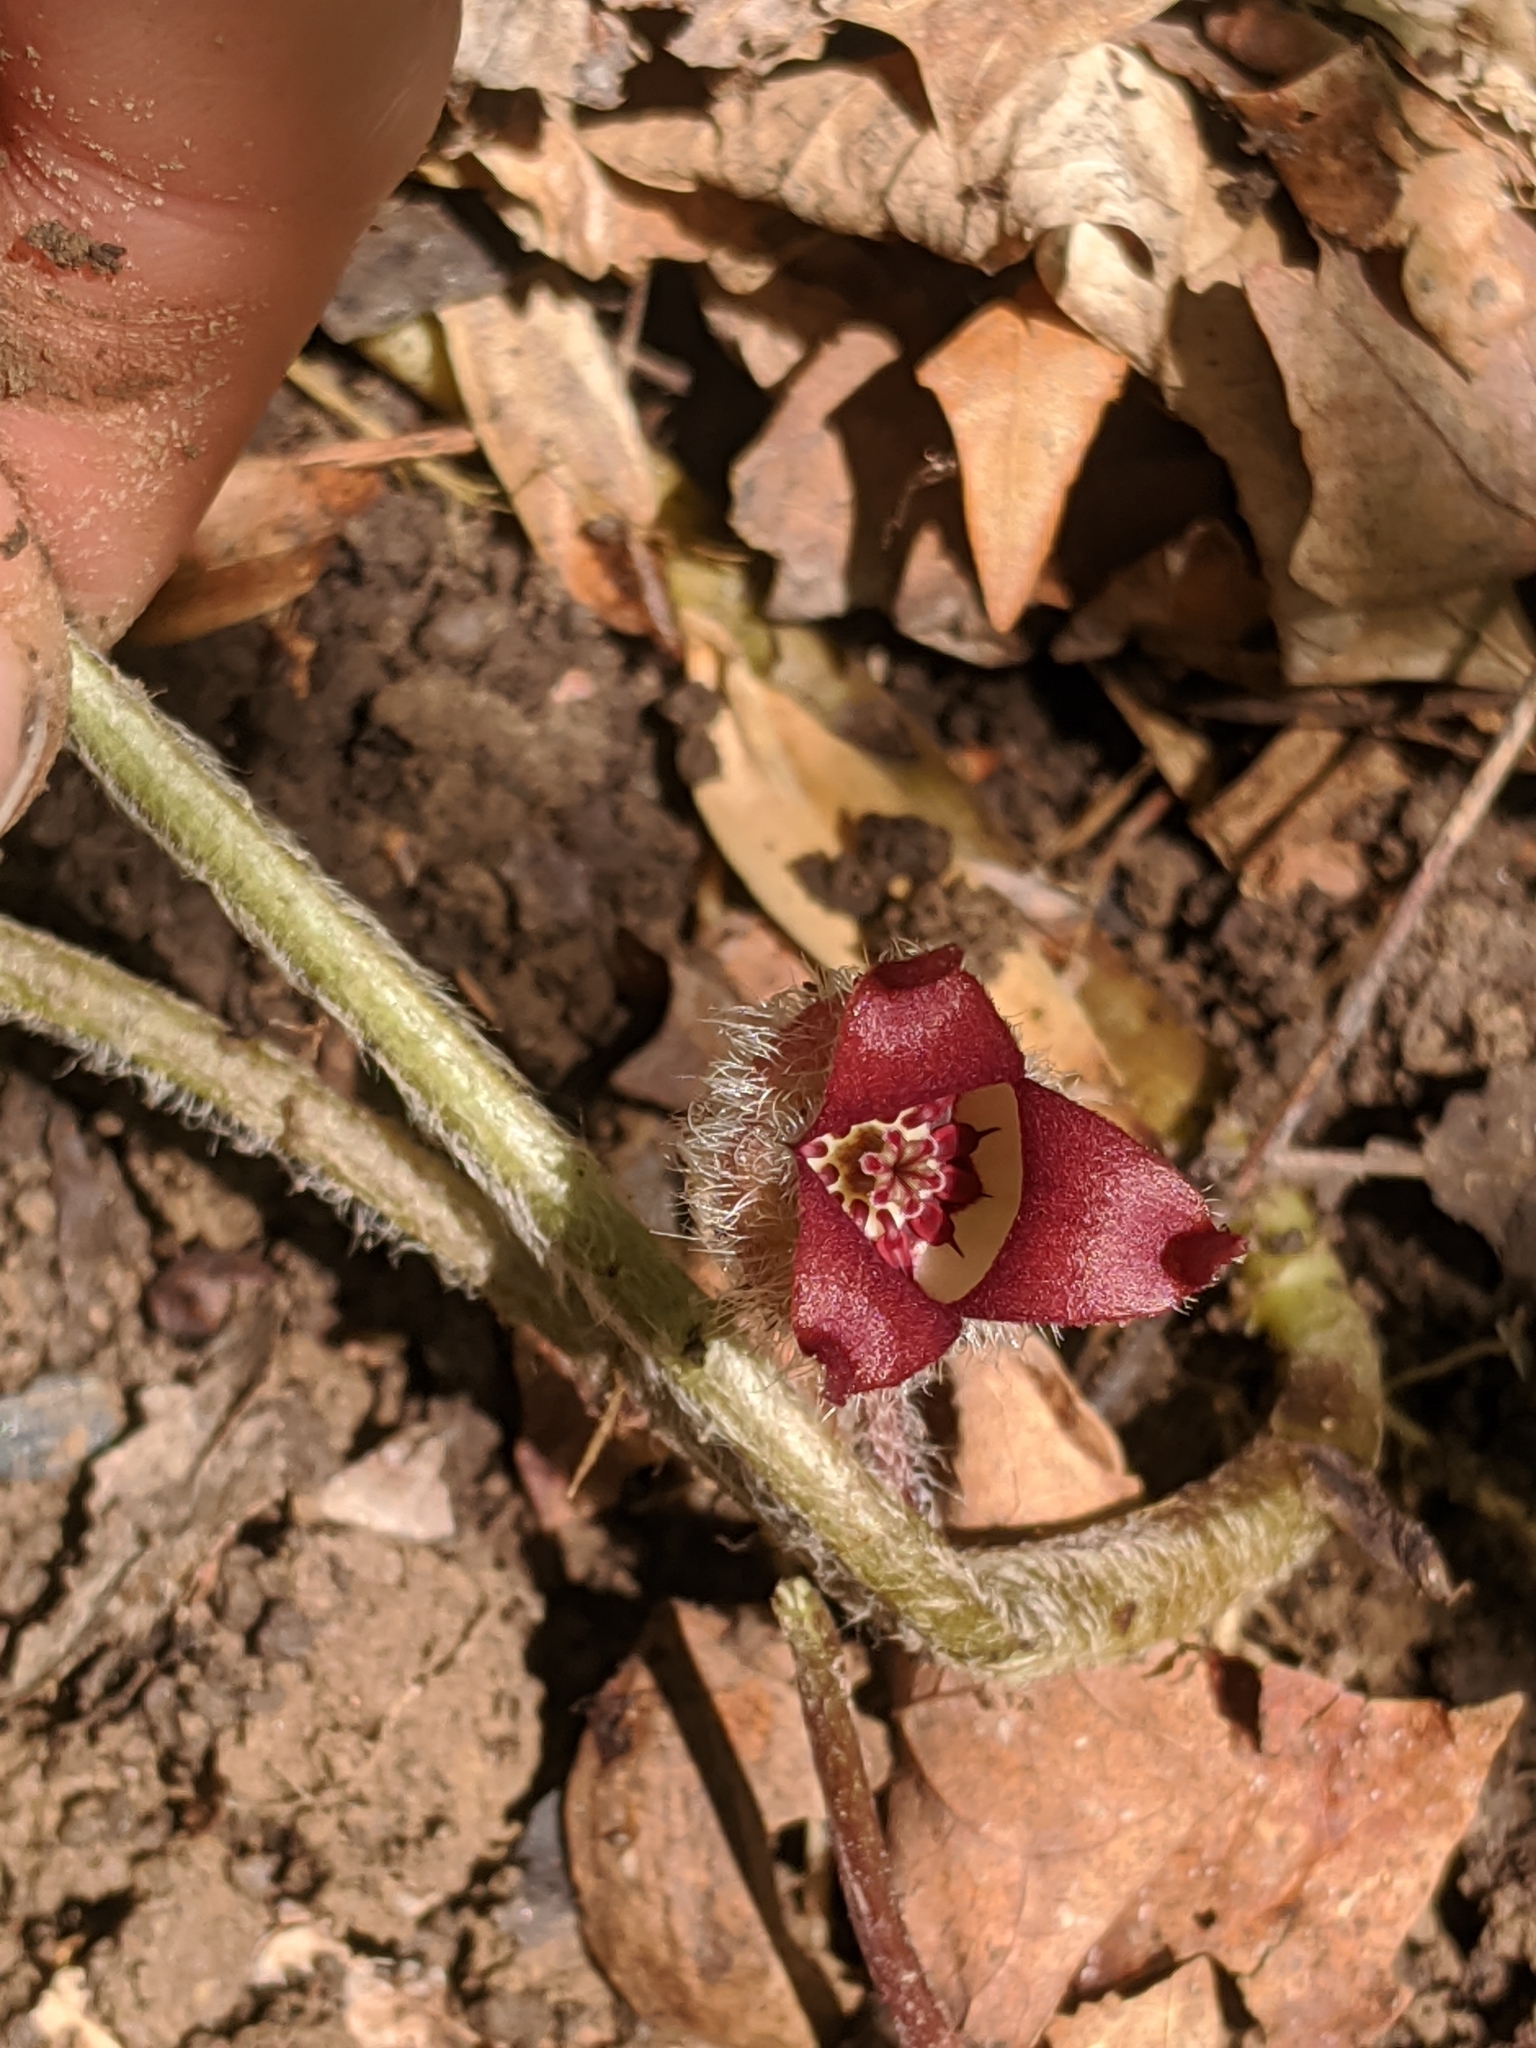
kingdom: Plantae
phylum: Tracheophyta
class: Magnoliopsida
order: Piperales
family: Aristolochiaceae
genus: Asarum
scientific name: Asarum canadense
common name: Wild ginger
